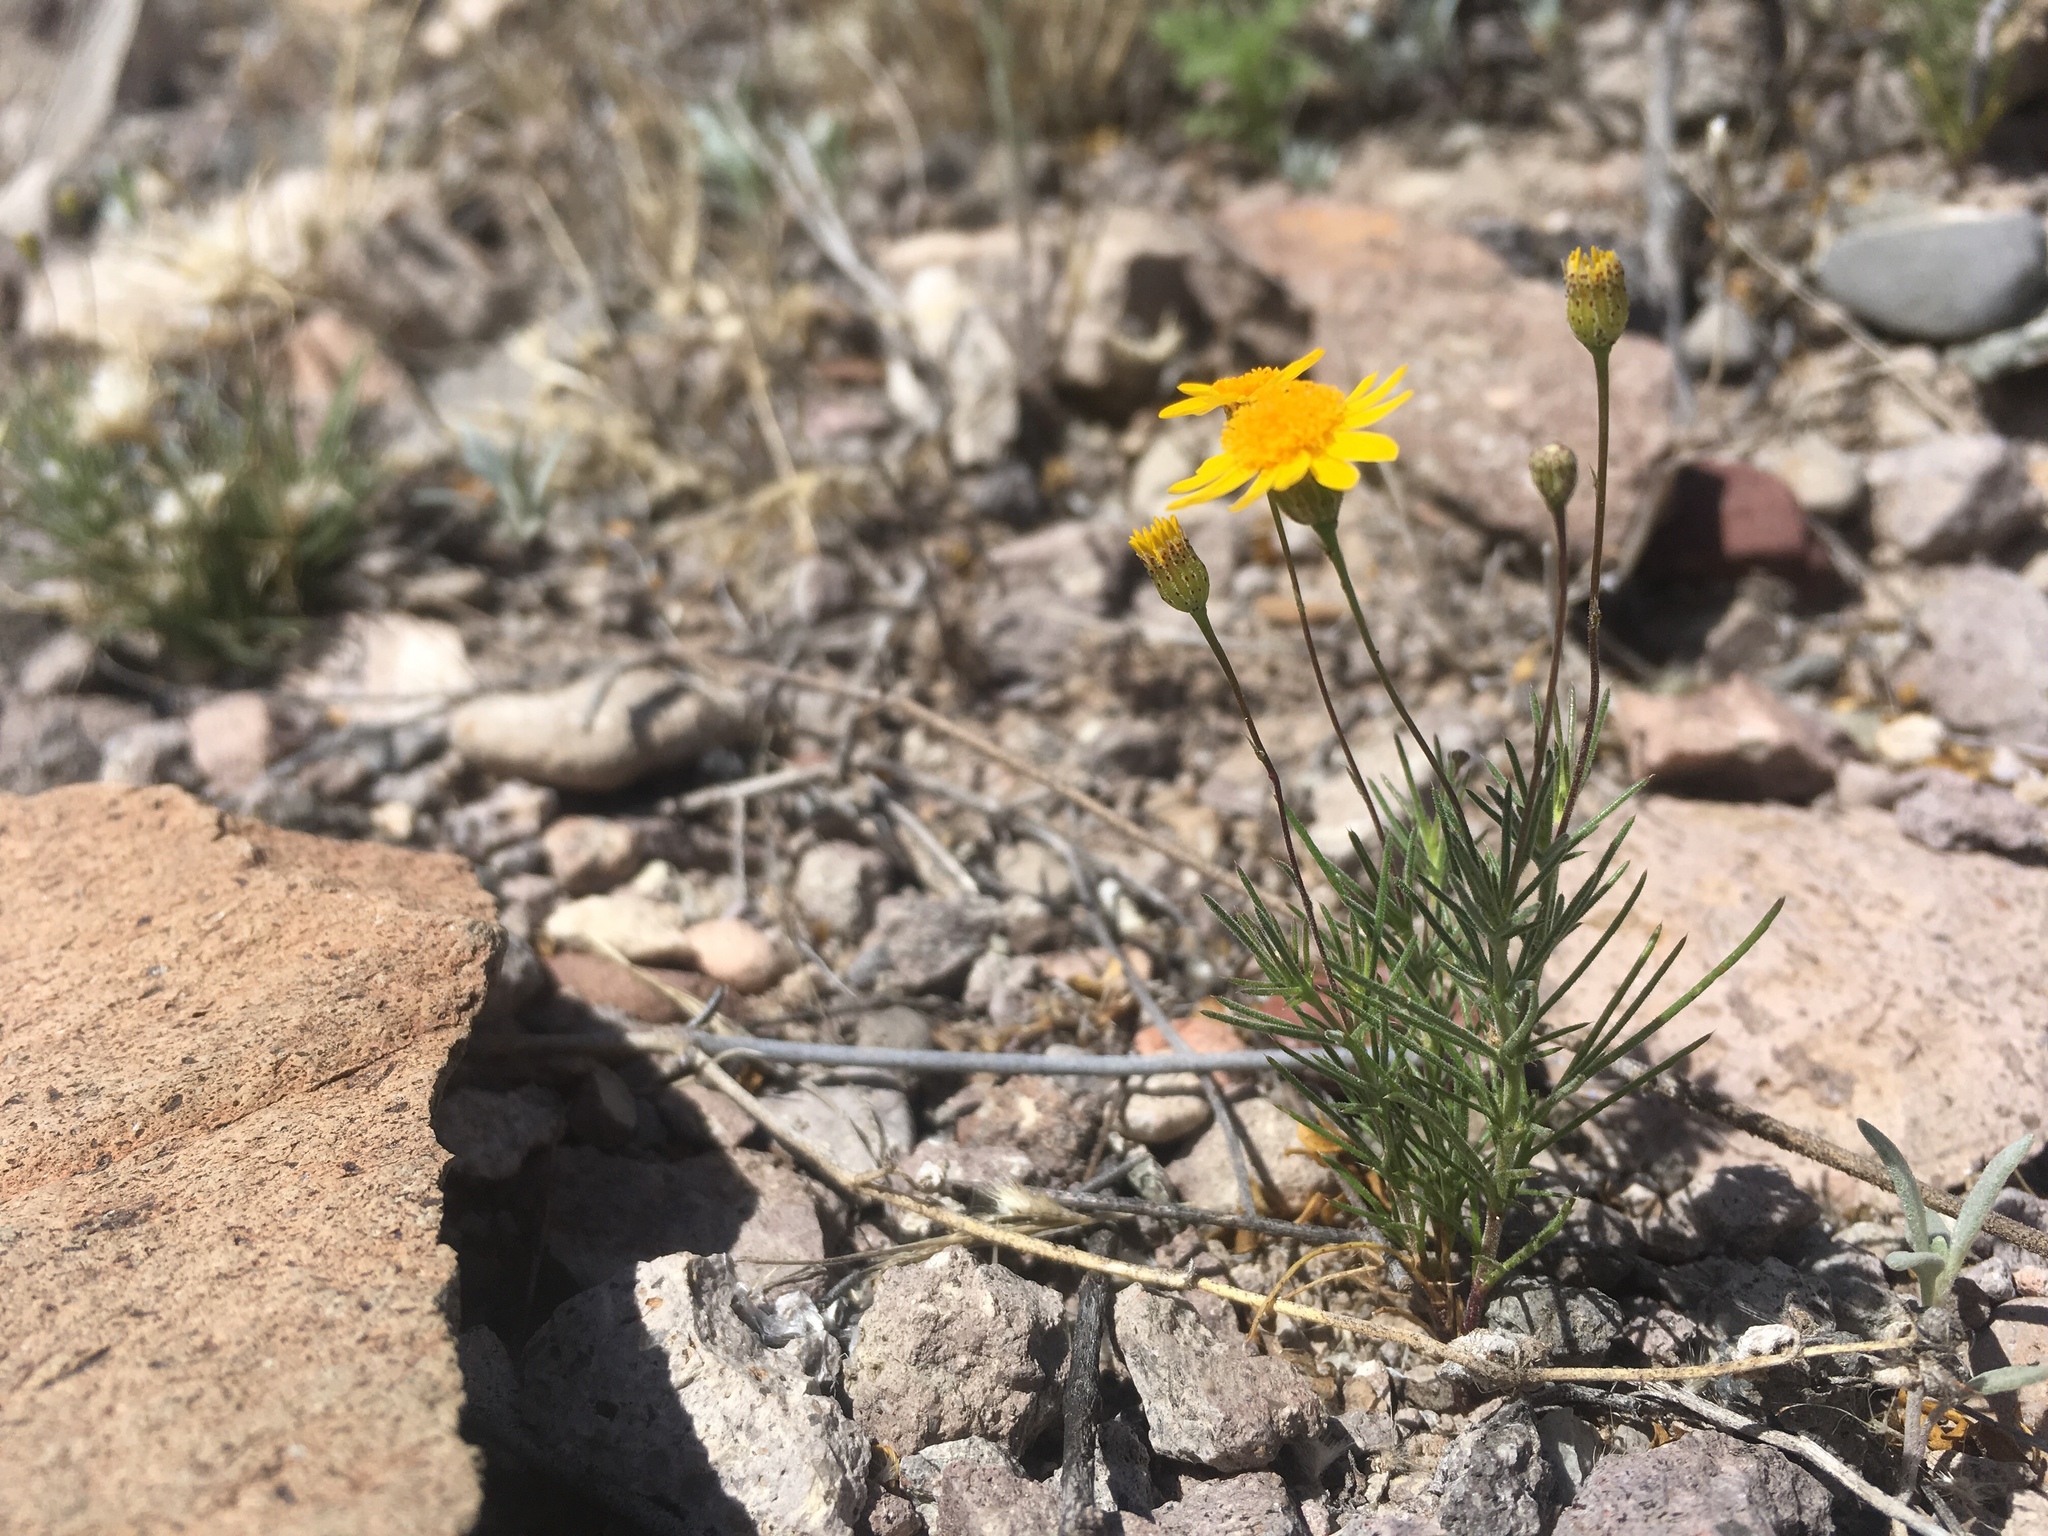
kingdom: Plantae
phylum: Tracheophyta
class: Magnoliopsida
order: Asterales
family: Asteraceae
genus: Thymophylla
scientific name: Thymophylla pentachaeta
